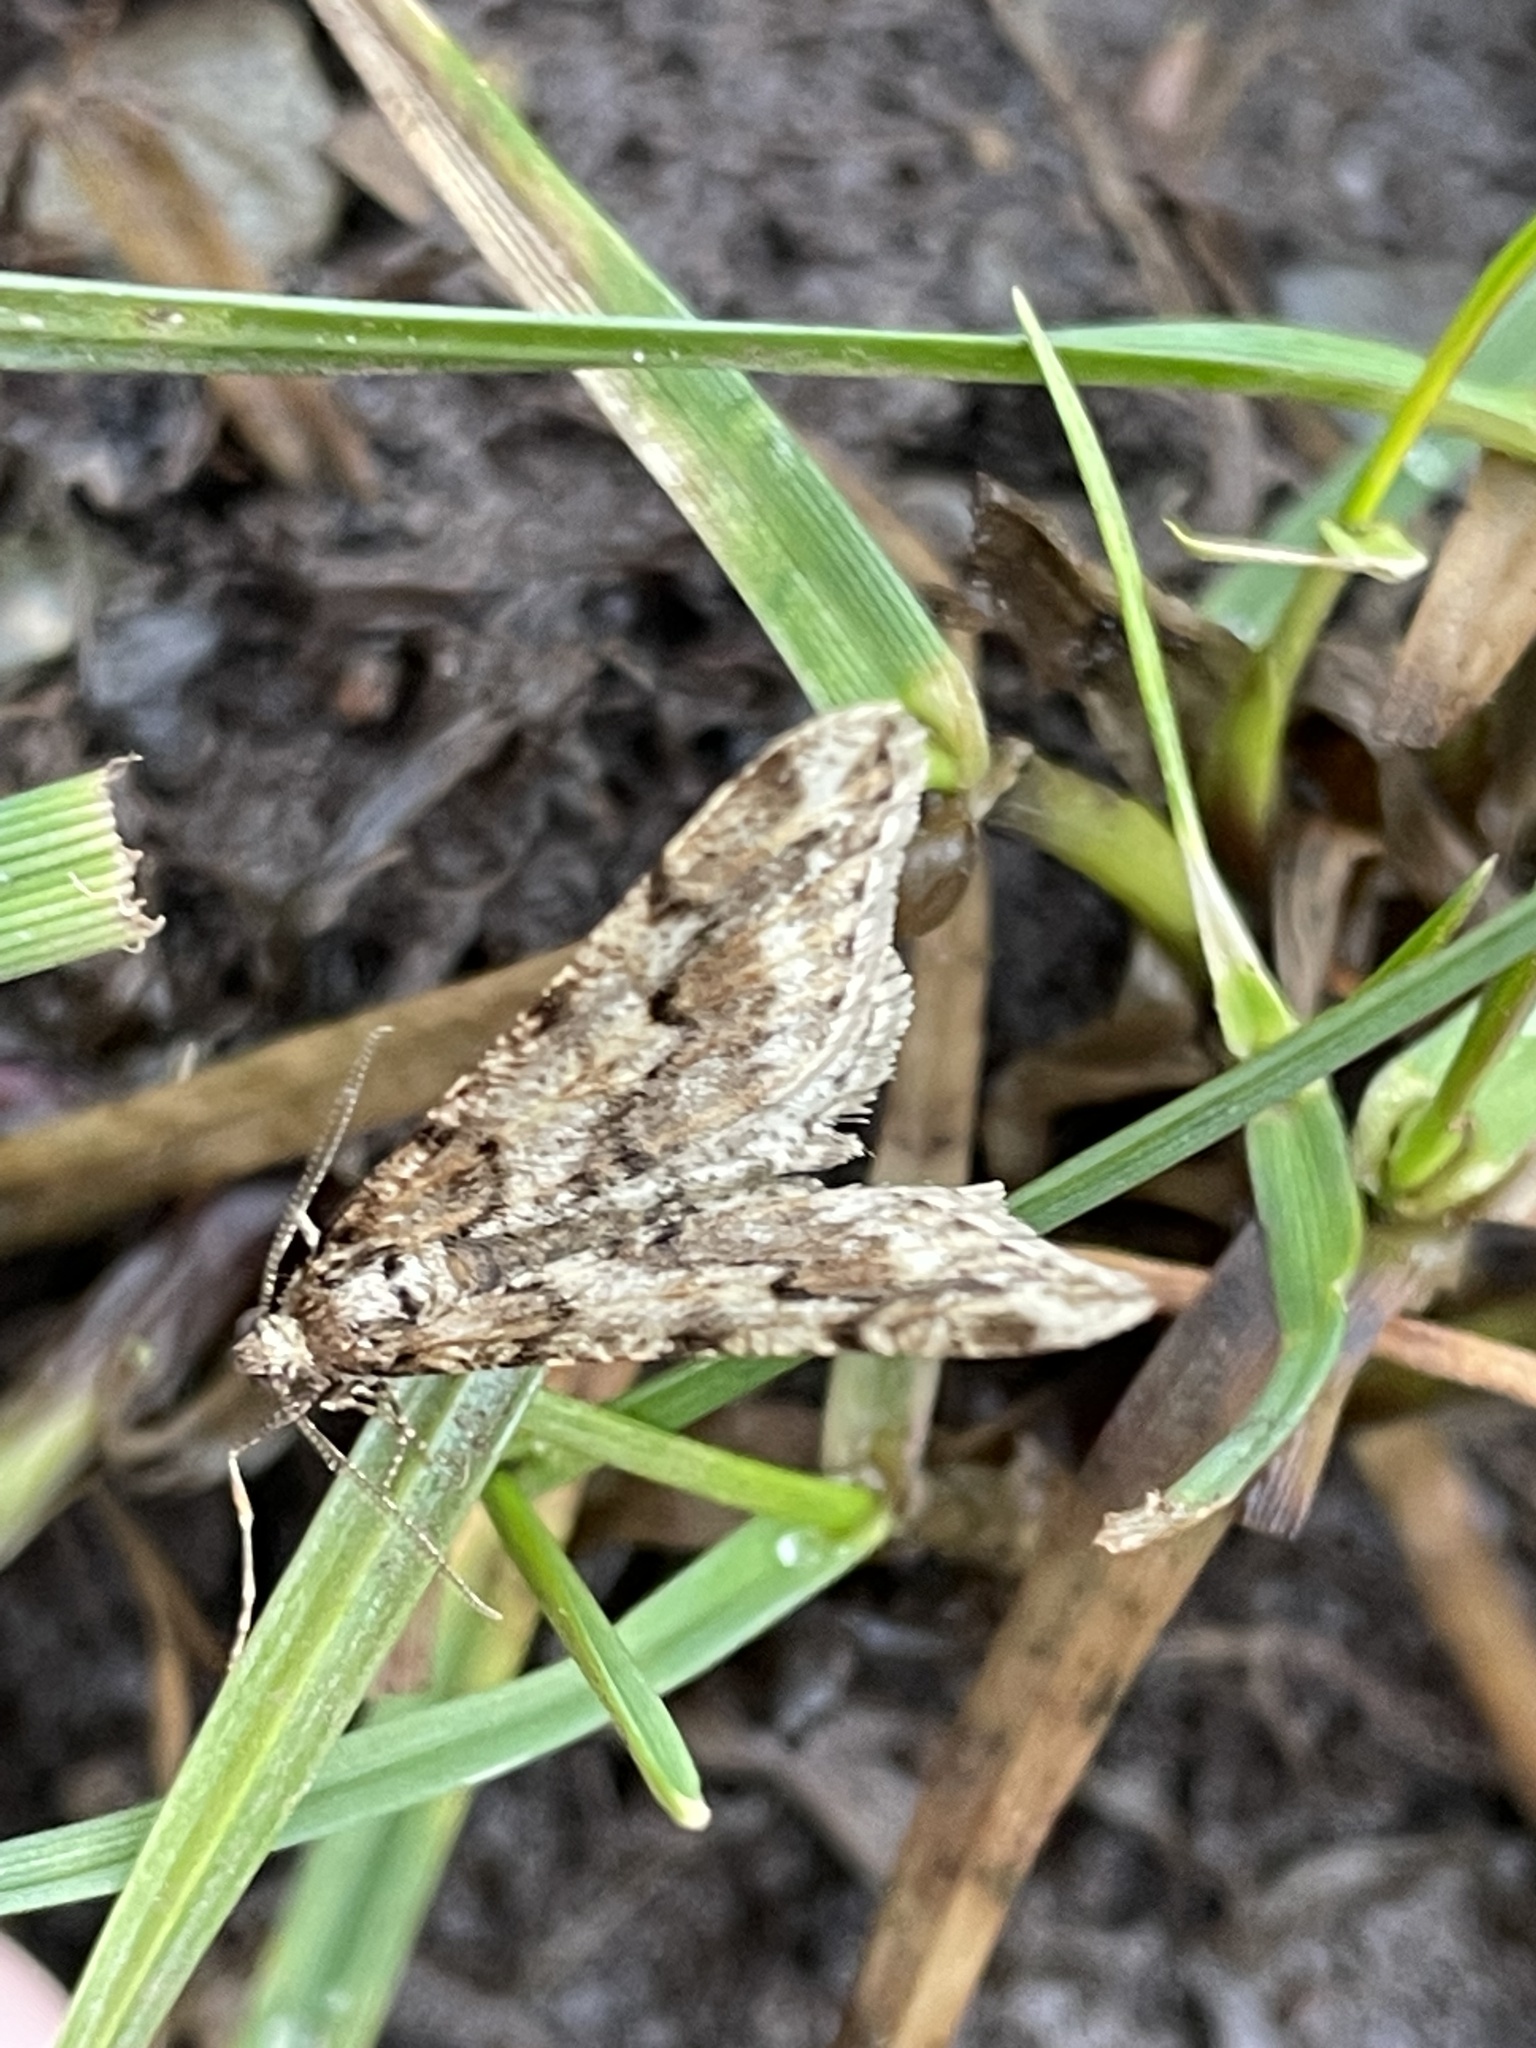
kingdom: Animalia
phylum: Arthropoda
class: Insecta
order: Lepidoptera
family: Geometridae
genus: Agriopis
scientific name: Agriopis leucophaearia
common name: Spring usher
